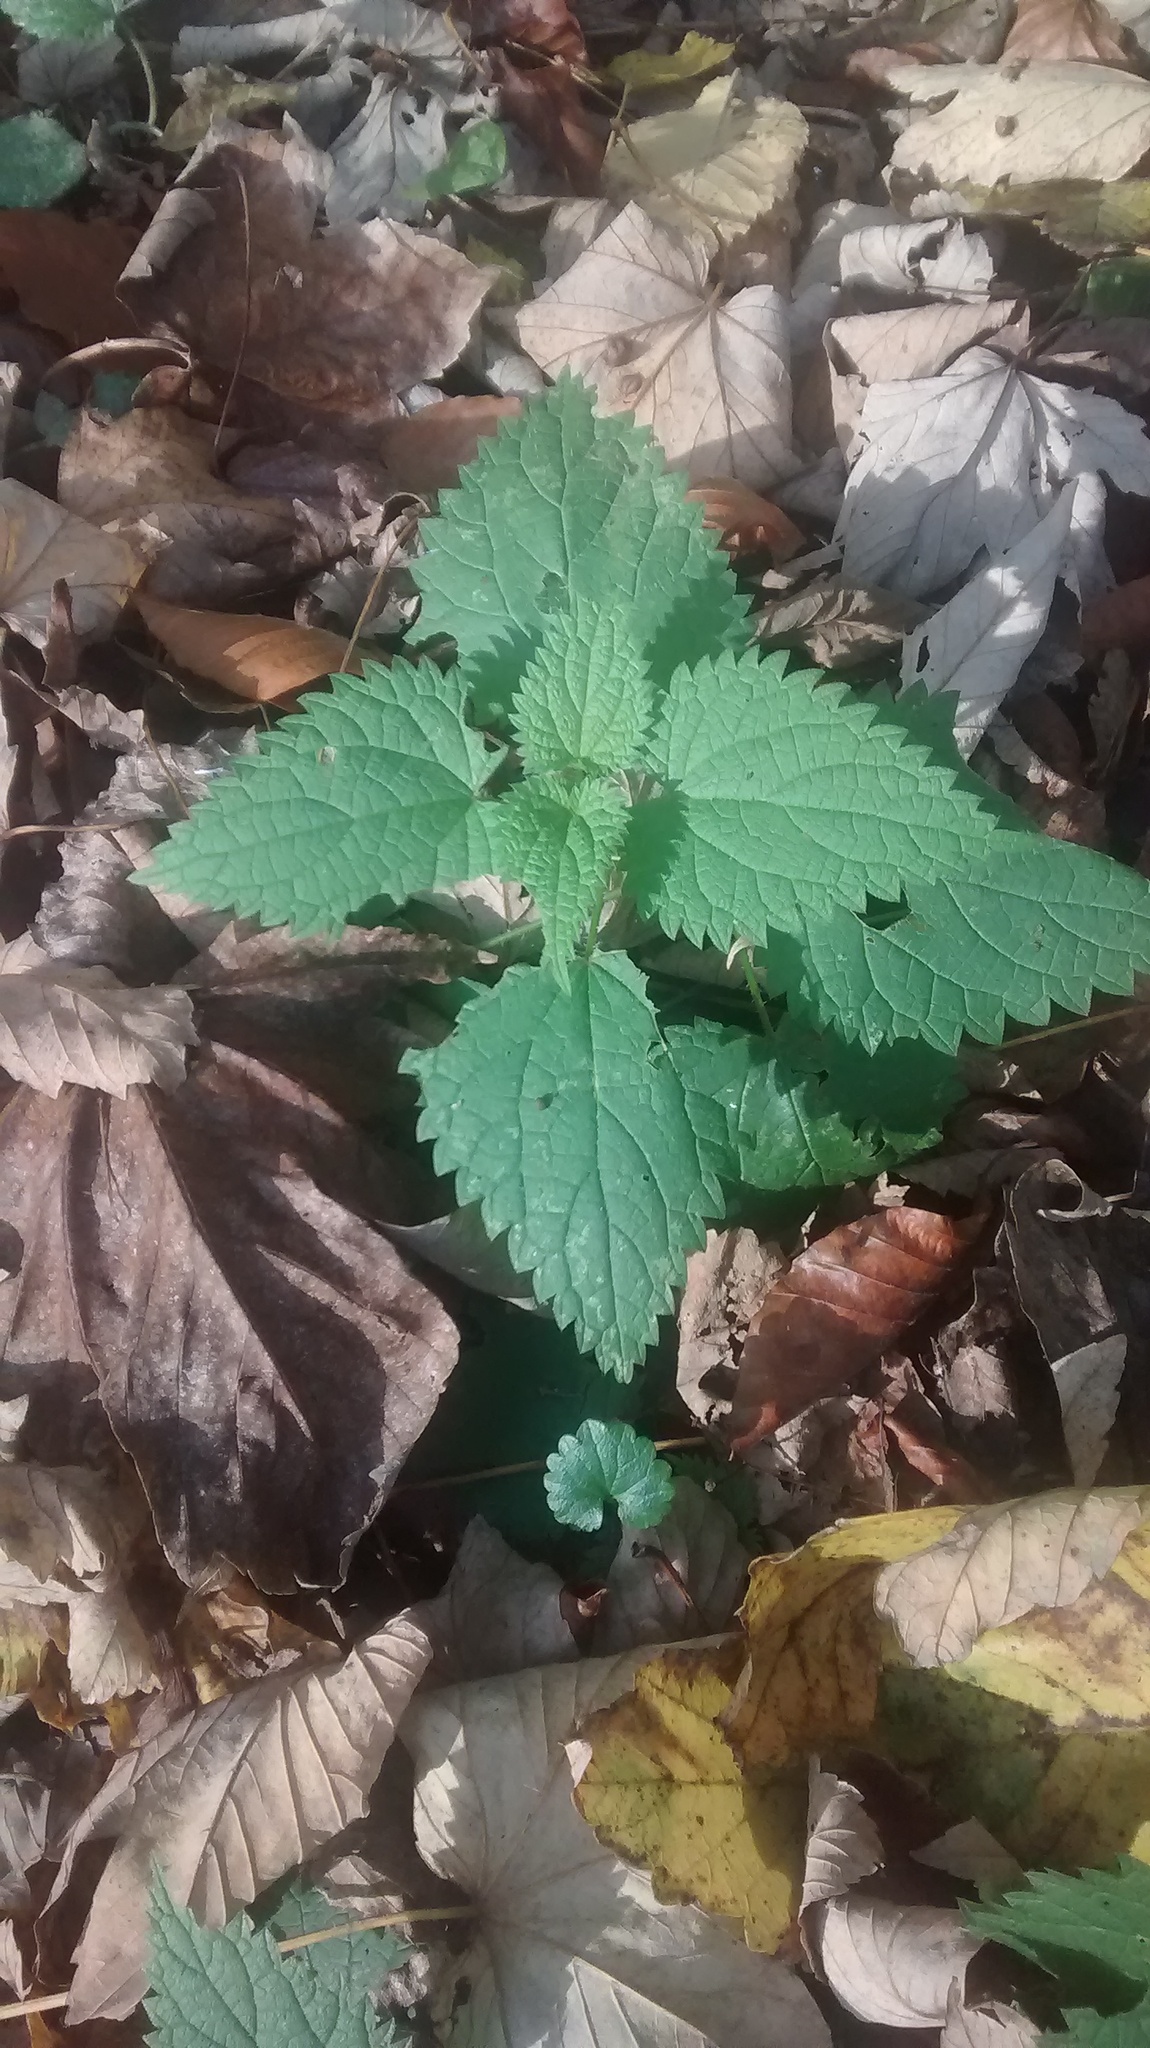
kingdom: Plantae
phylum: Tracheophyta
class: Magnoliopsida
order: Rosales
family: Urticaceae
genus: Urtica
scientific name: Urtica dioica
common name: Common nettle
